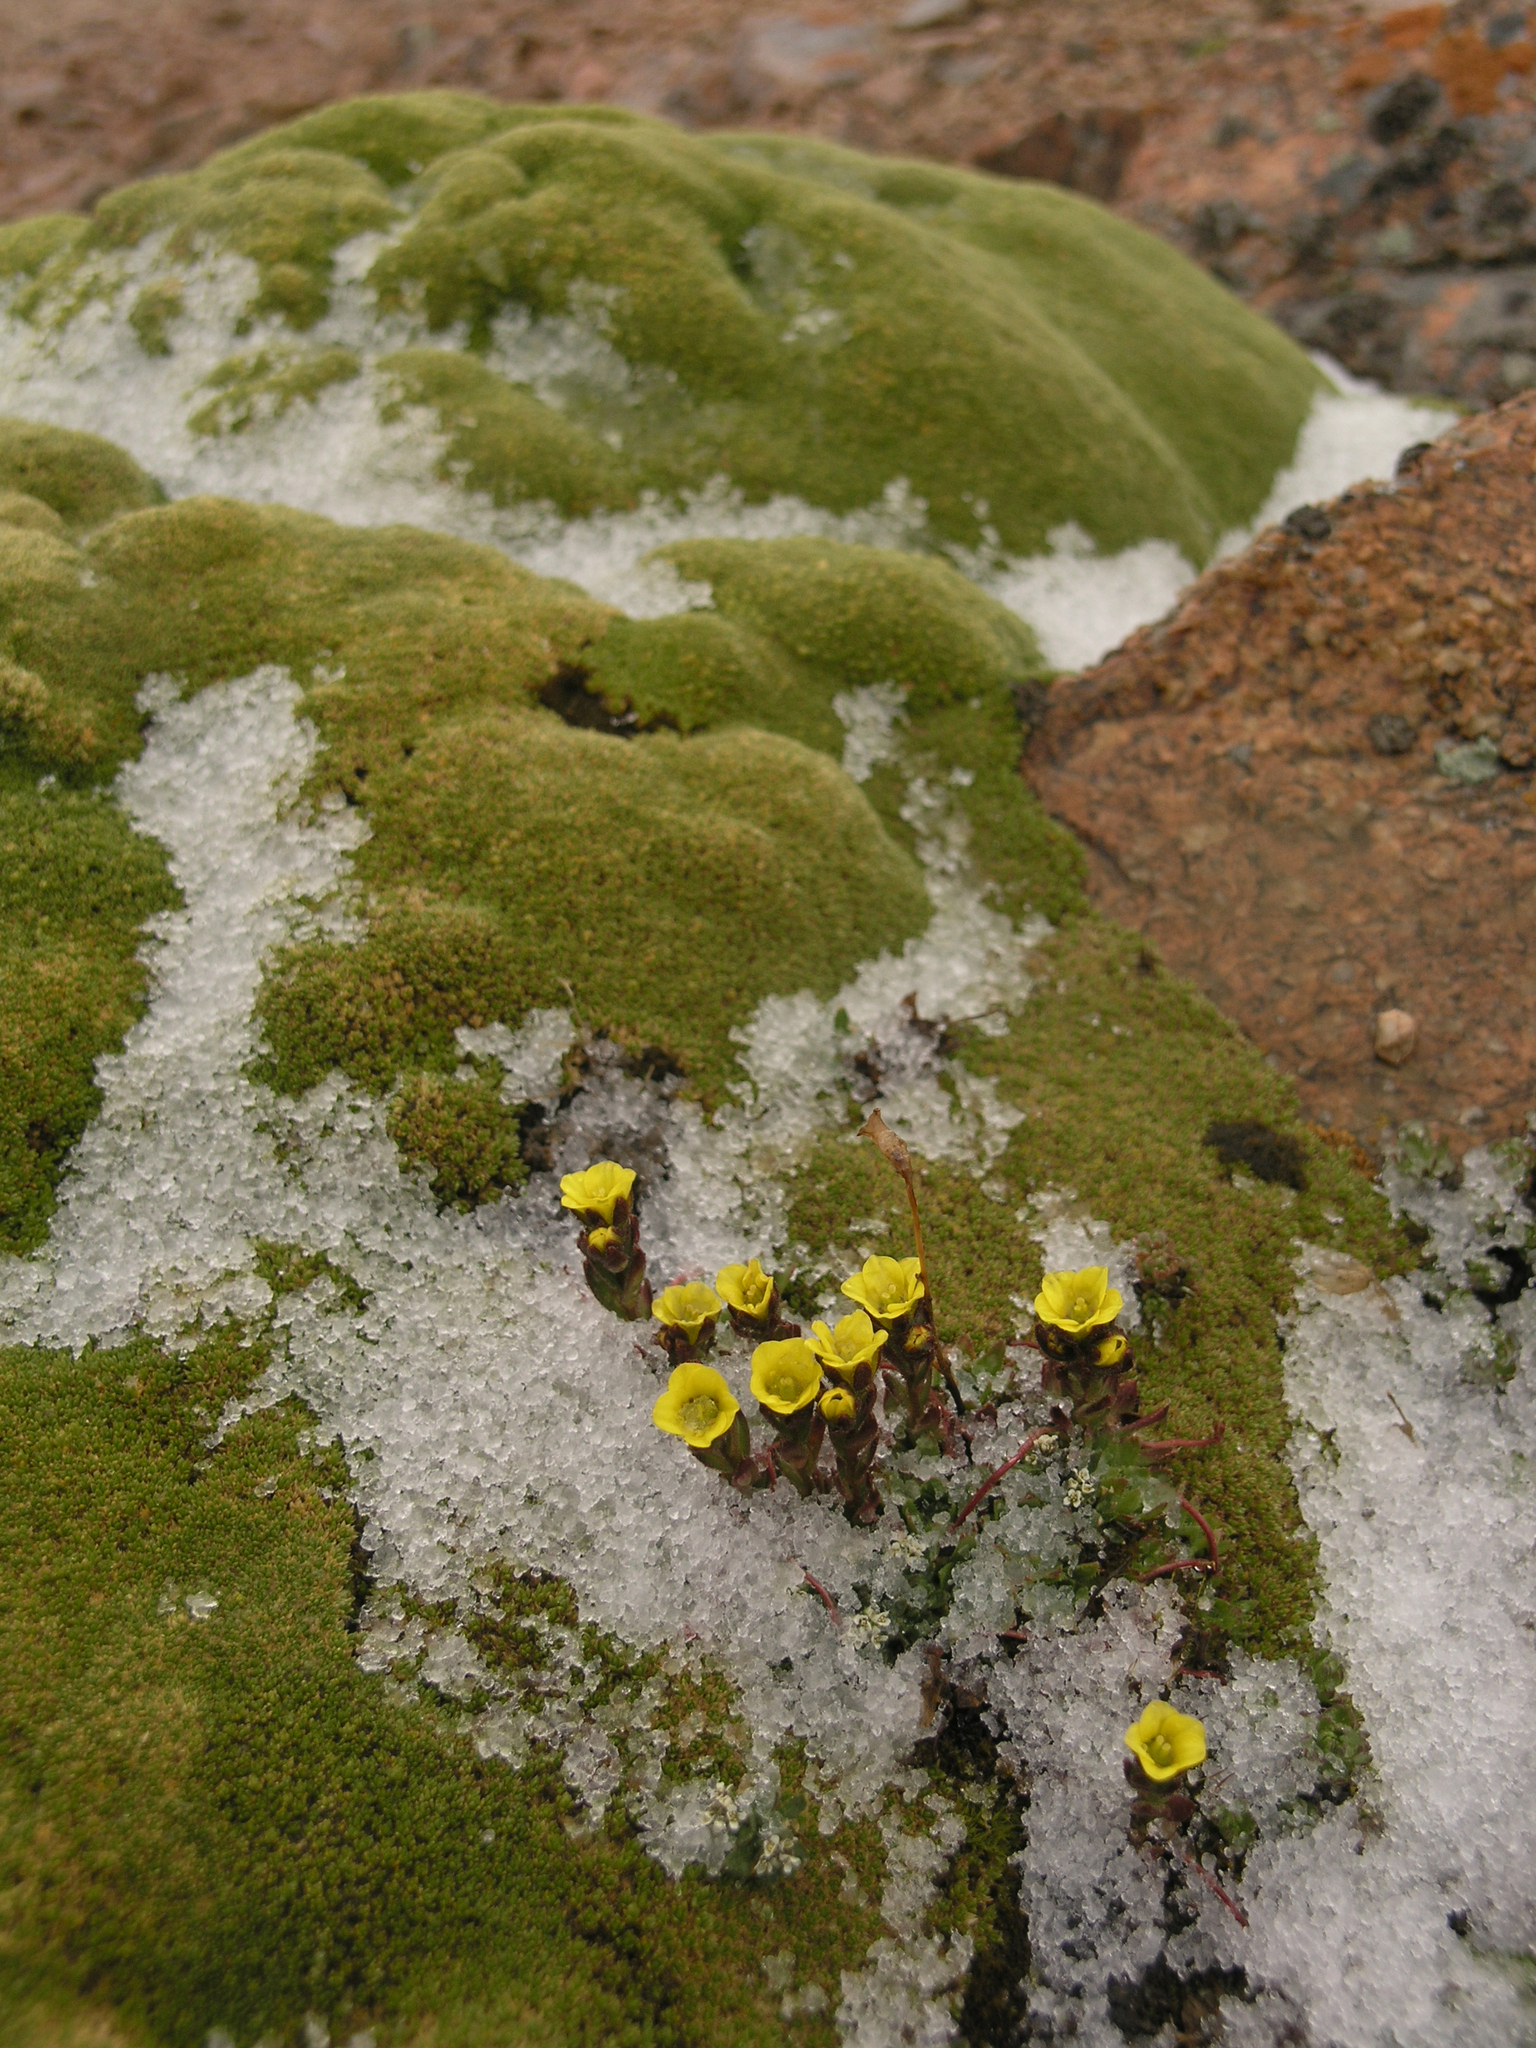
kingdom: Plantae
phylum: Tracheophyta
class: Magnoliopsida
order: Saxifragales
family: Saxifragaceae
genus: Saxifraga
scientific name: Saxifraga flagellaris
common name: Spider saxifrage
